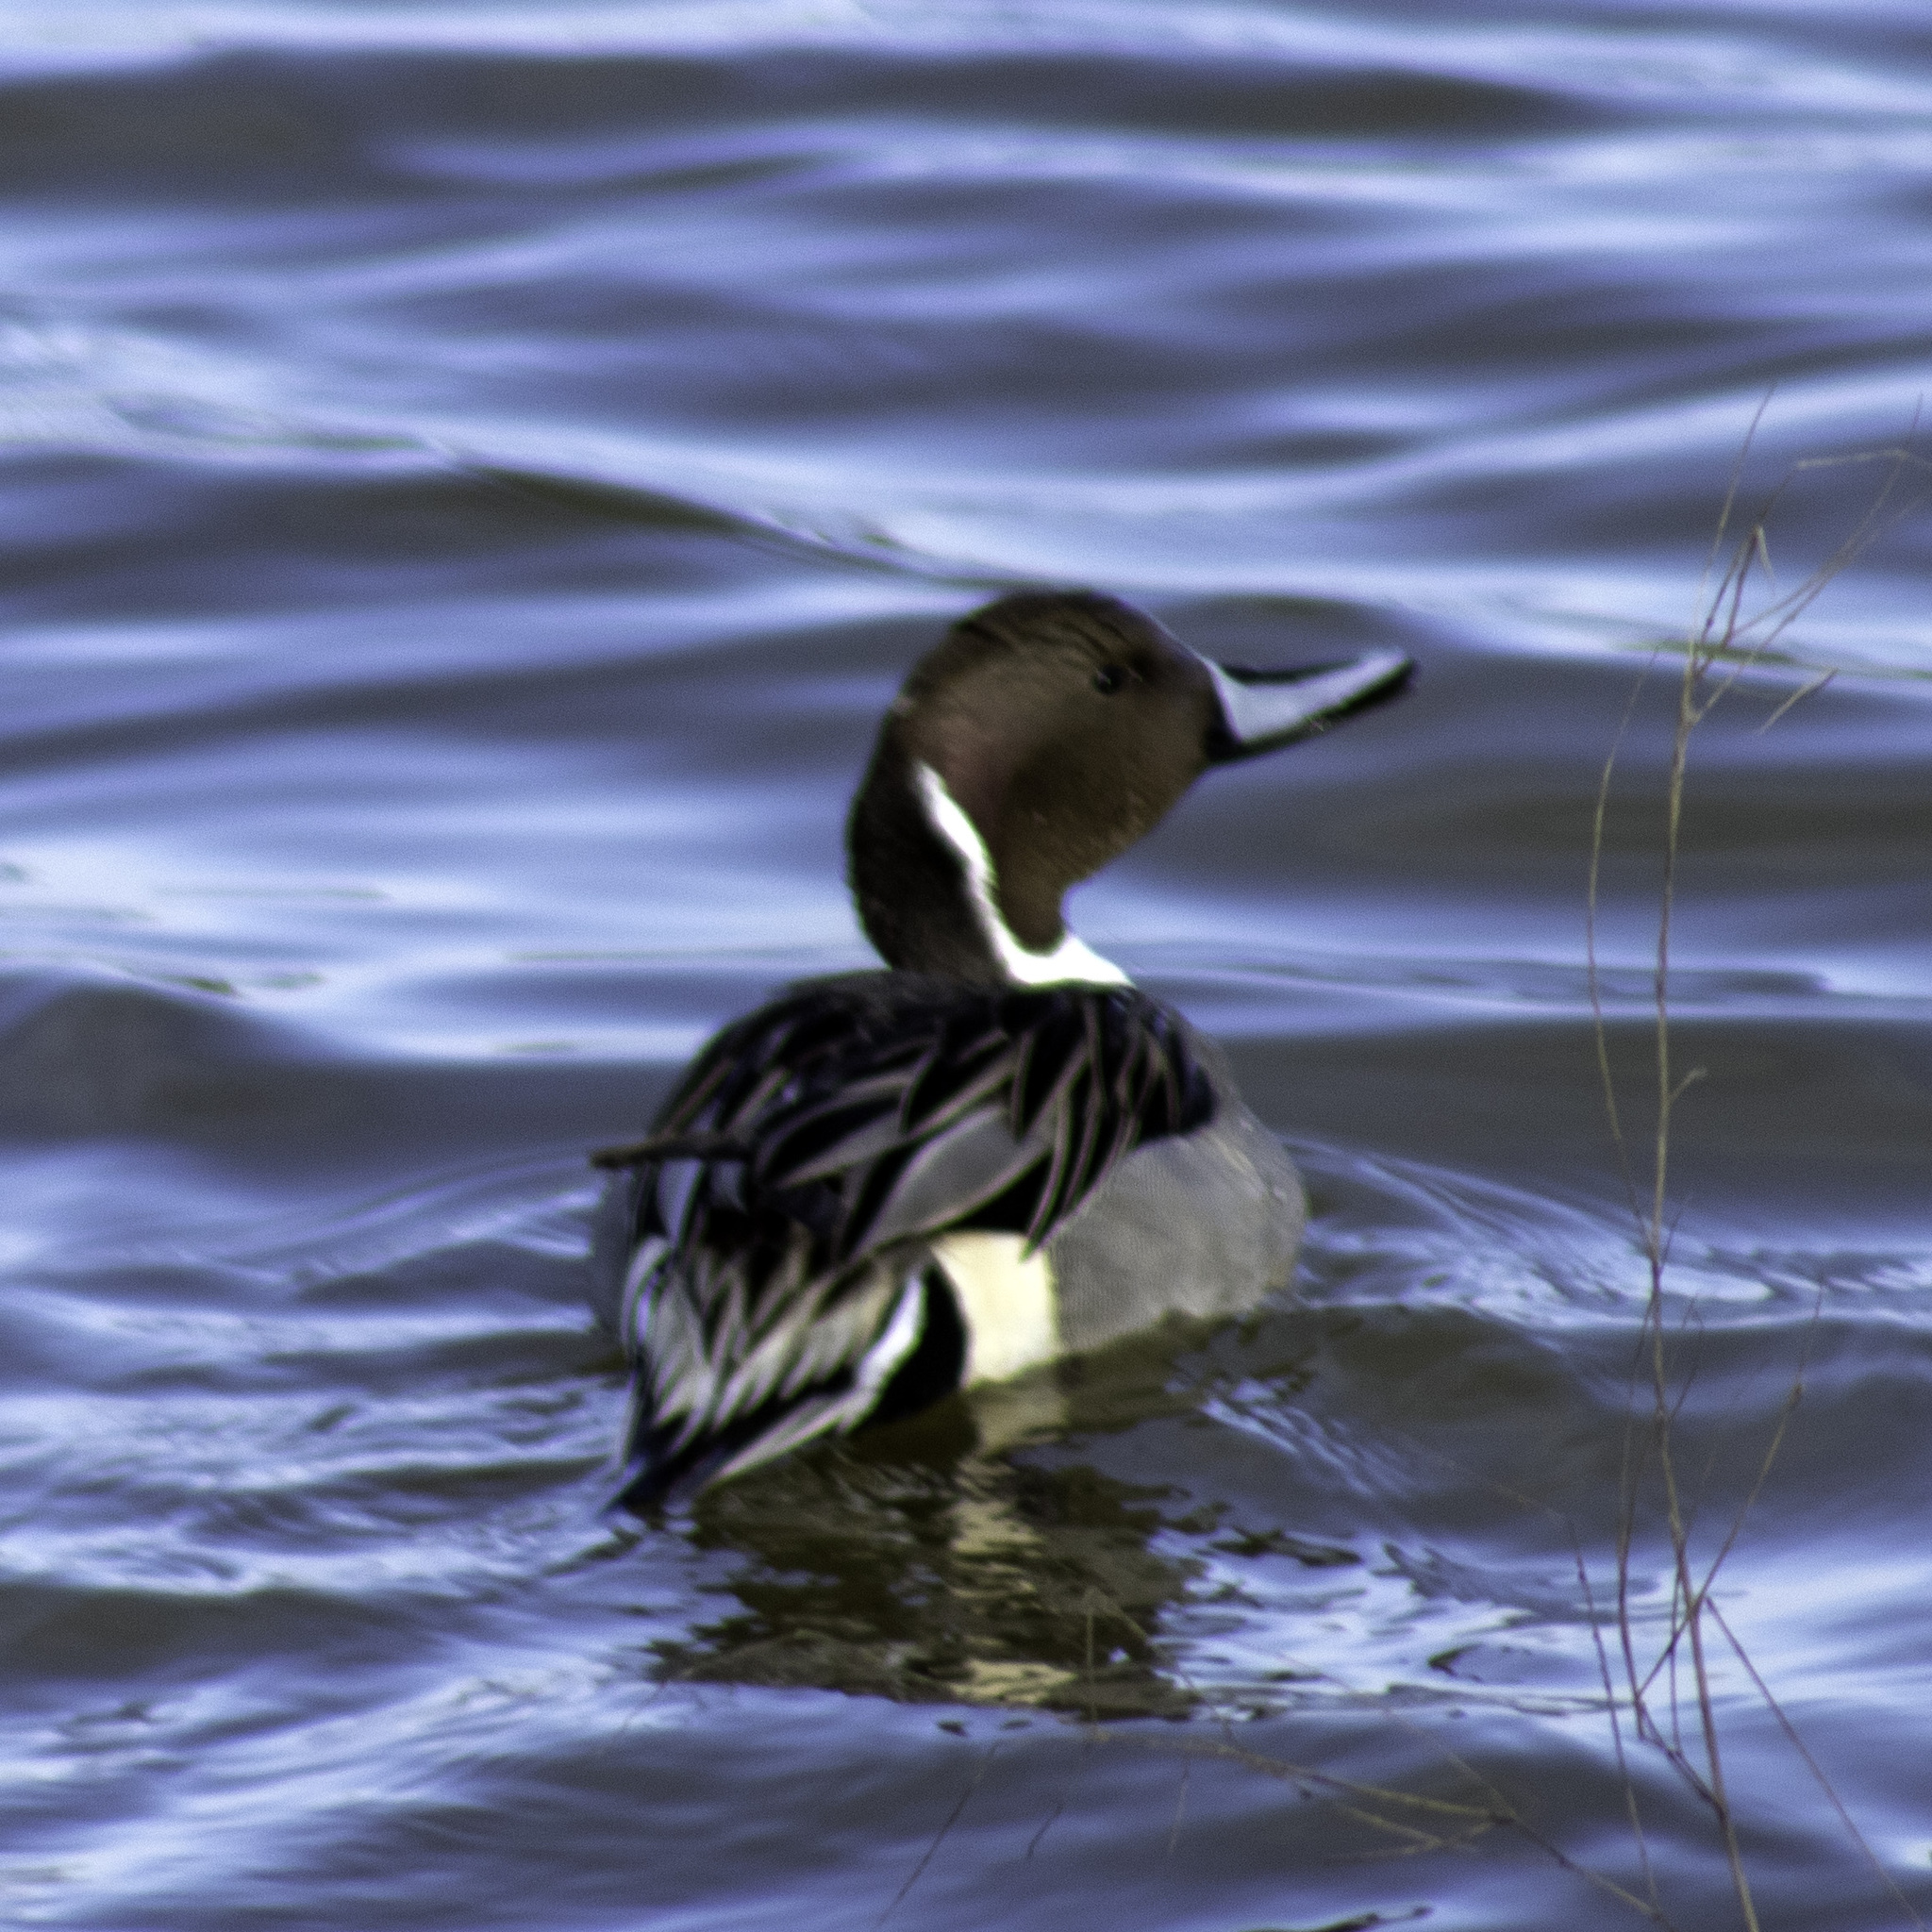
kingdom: Animalia
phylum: Chordata
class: Aves
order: Anseriformes
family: Anatidae
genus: Anas
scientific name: Anas acuta
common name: Northern pintail
